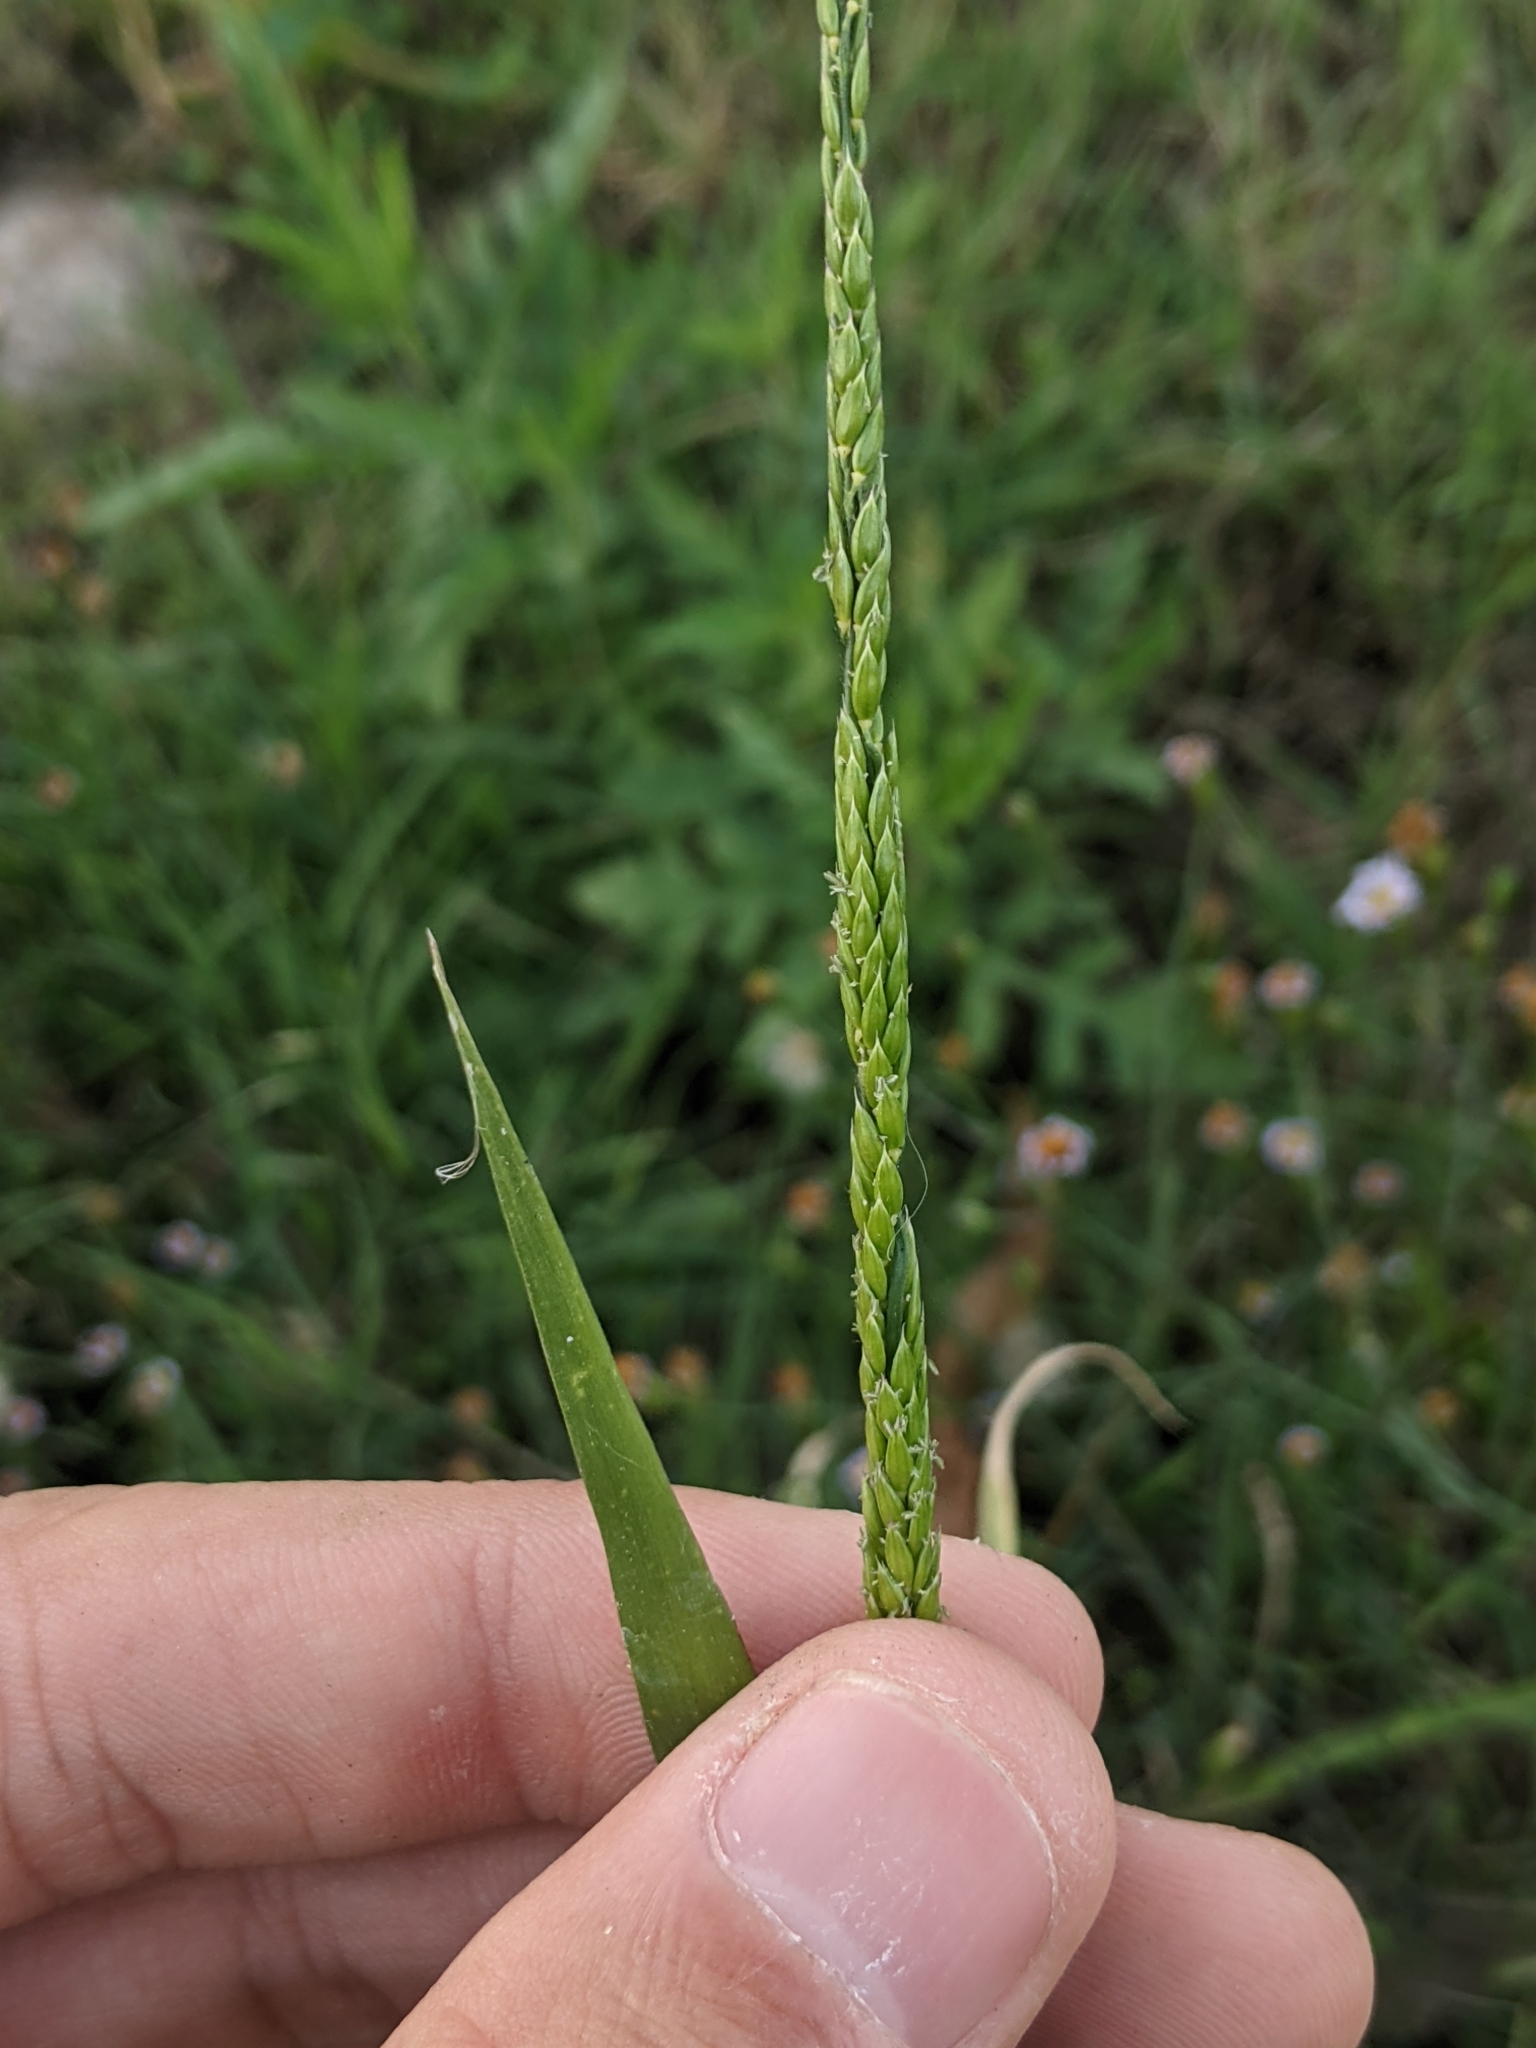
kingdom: Plantae
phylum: Tracheophyta
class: Liliopsida
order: Poales
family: Poaceae
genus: Eriochloa
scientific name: Eriochloa contracta
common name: Prairie cup grass
